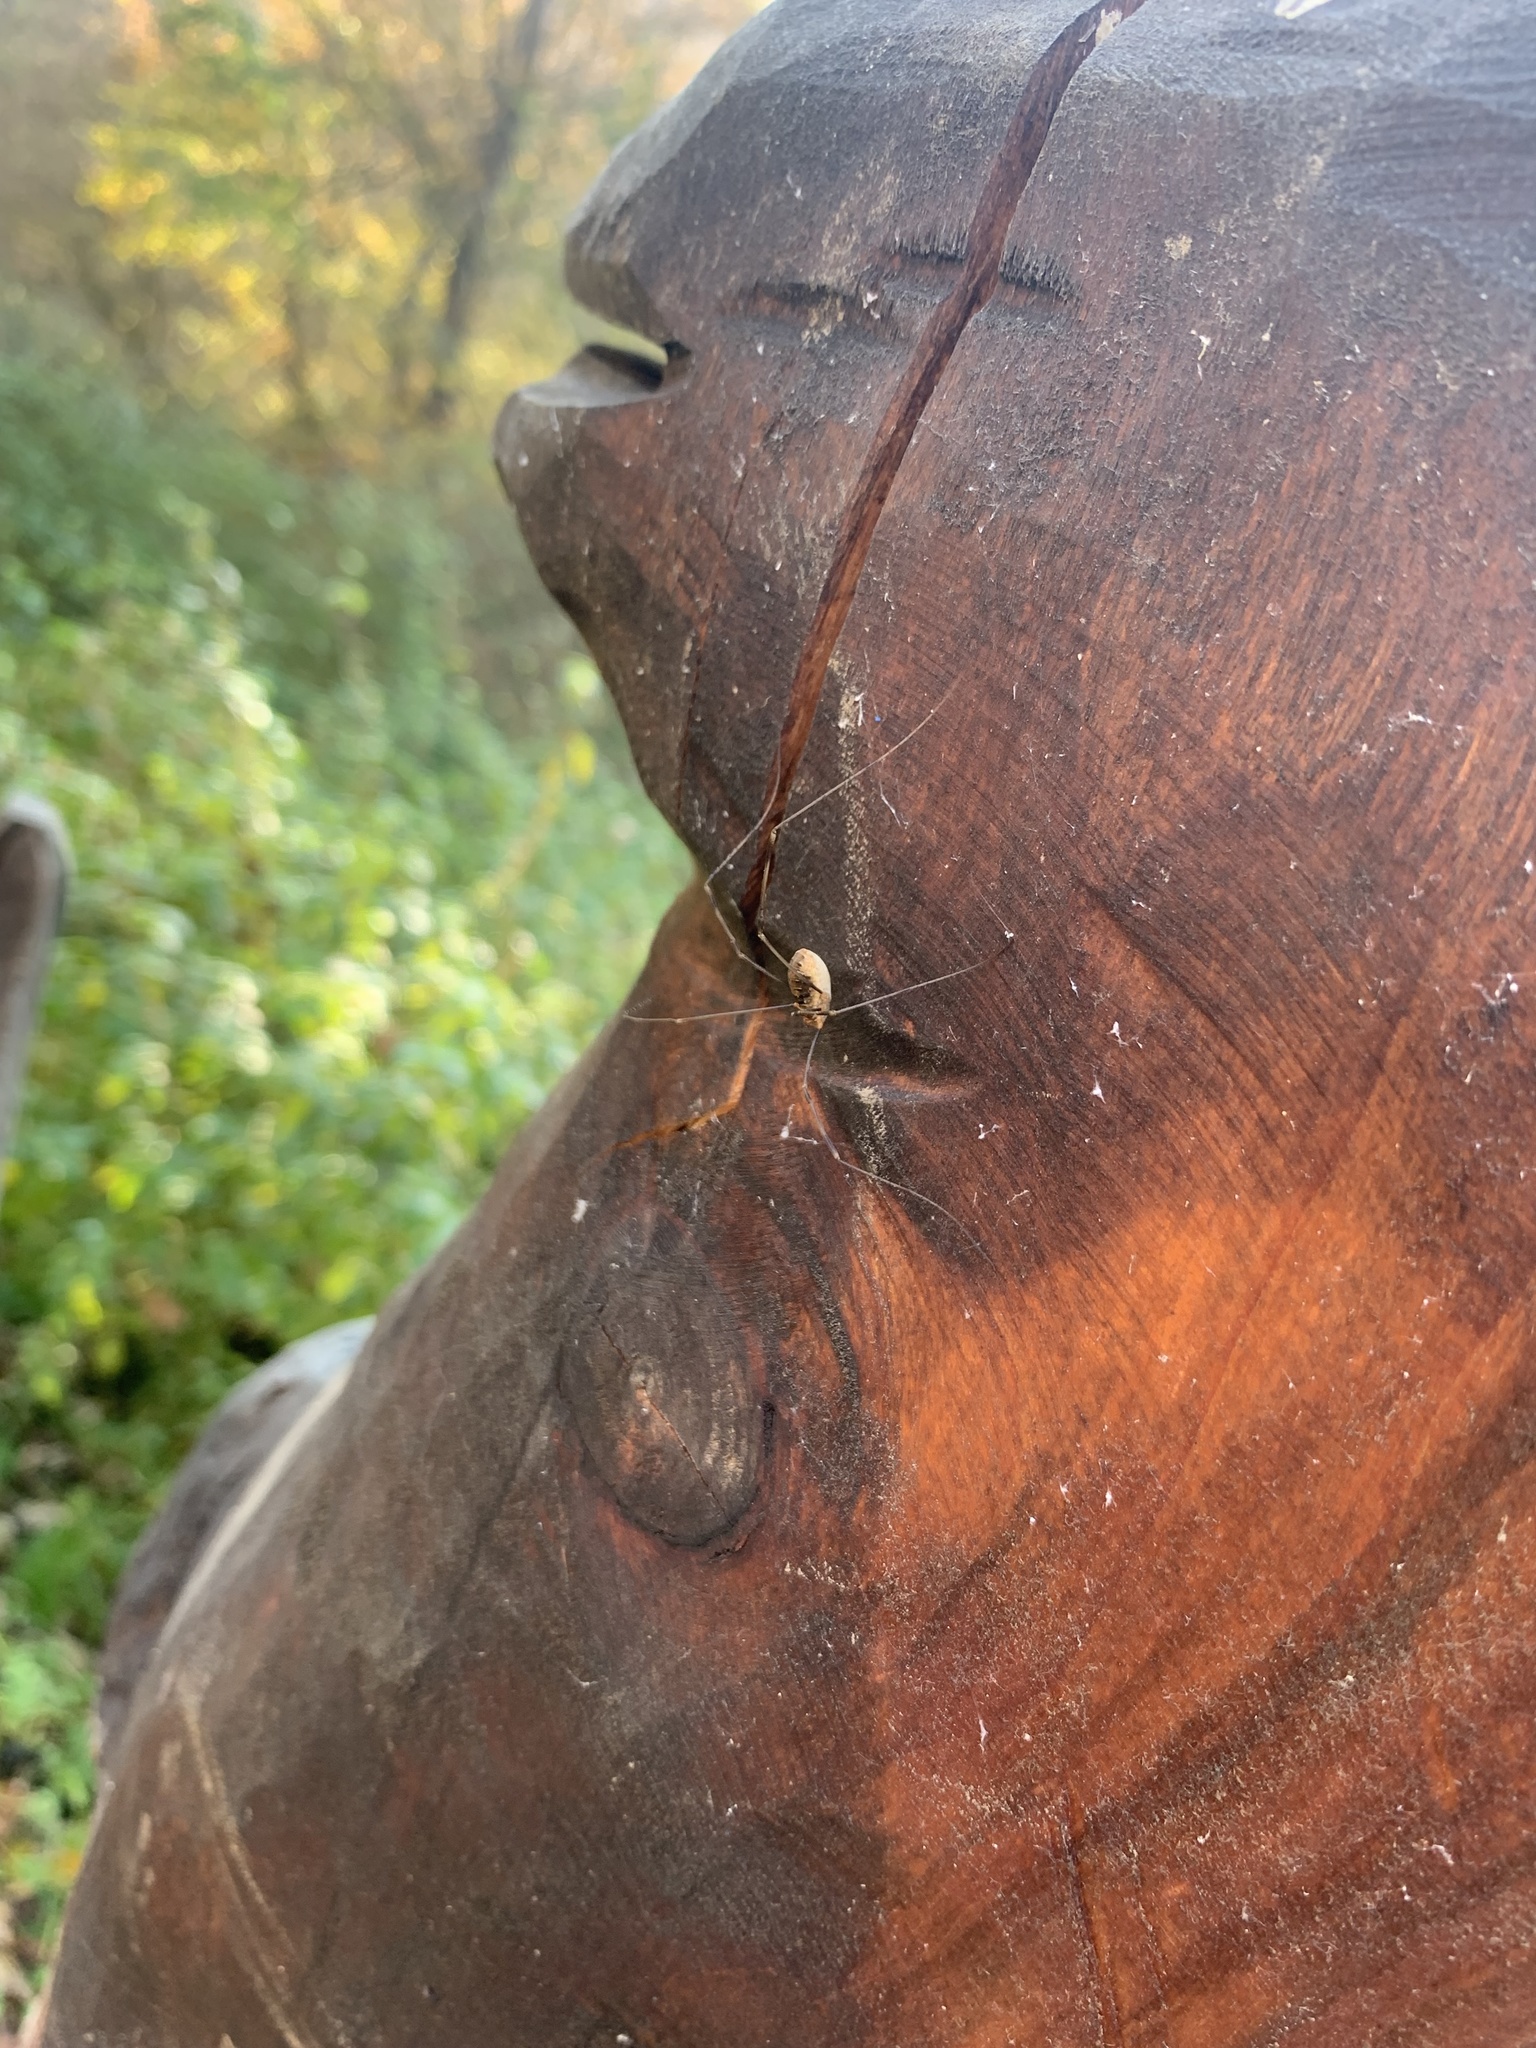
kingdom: Animalia
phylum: Arthropoda
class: Arachnida
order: Opiliones
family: Phalangiidae
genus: Opilio
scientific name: Opilio canestrinii
